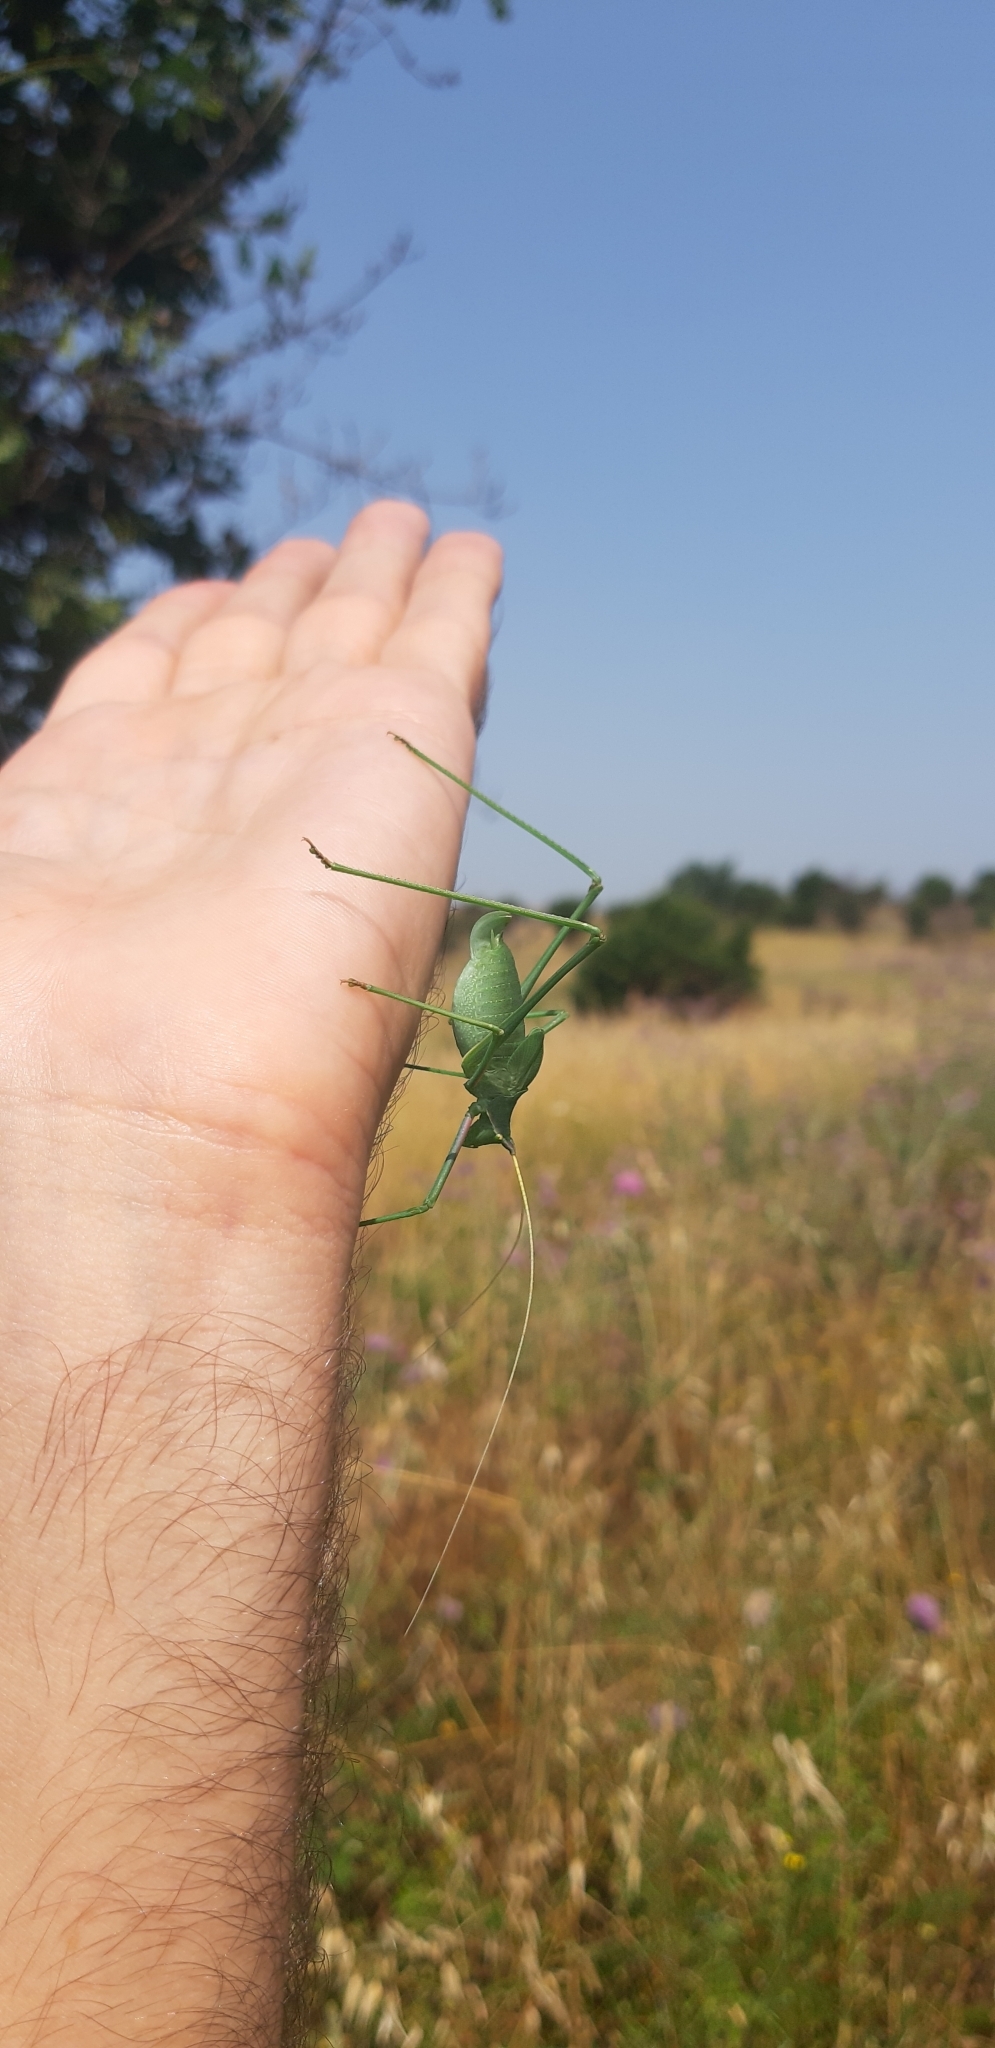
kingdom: Animalia
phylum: Arthropoda
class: Insecta
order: Orthoptera
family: Tettigoniidae
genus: Acrometopa
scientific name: Acrometopa italica
